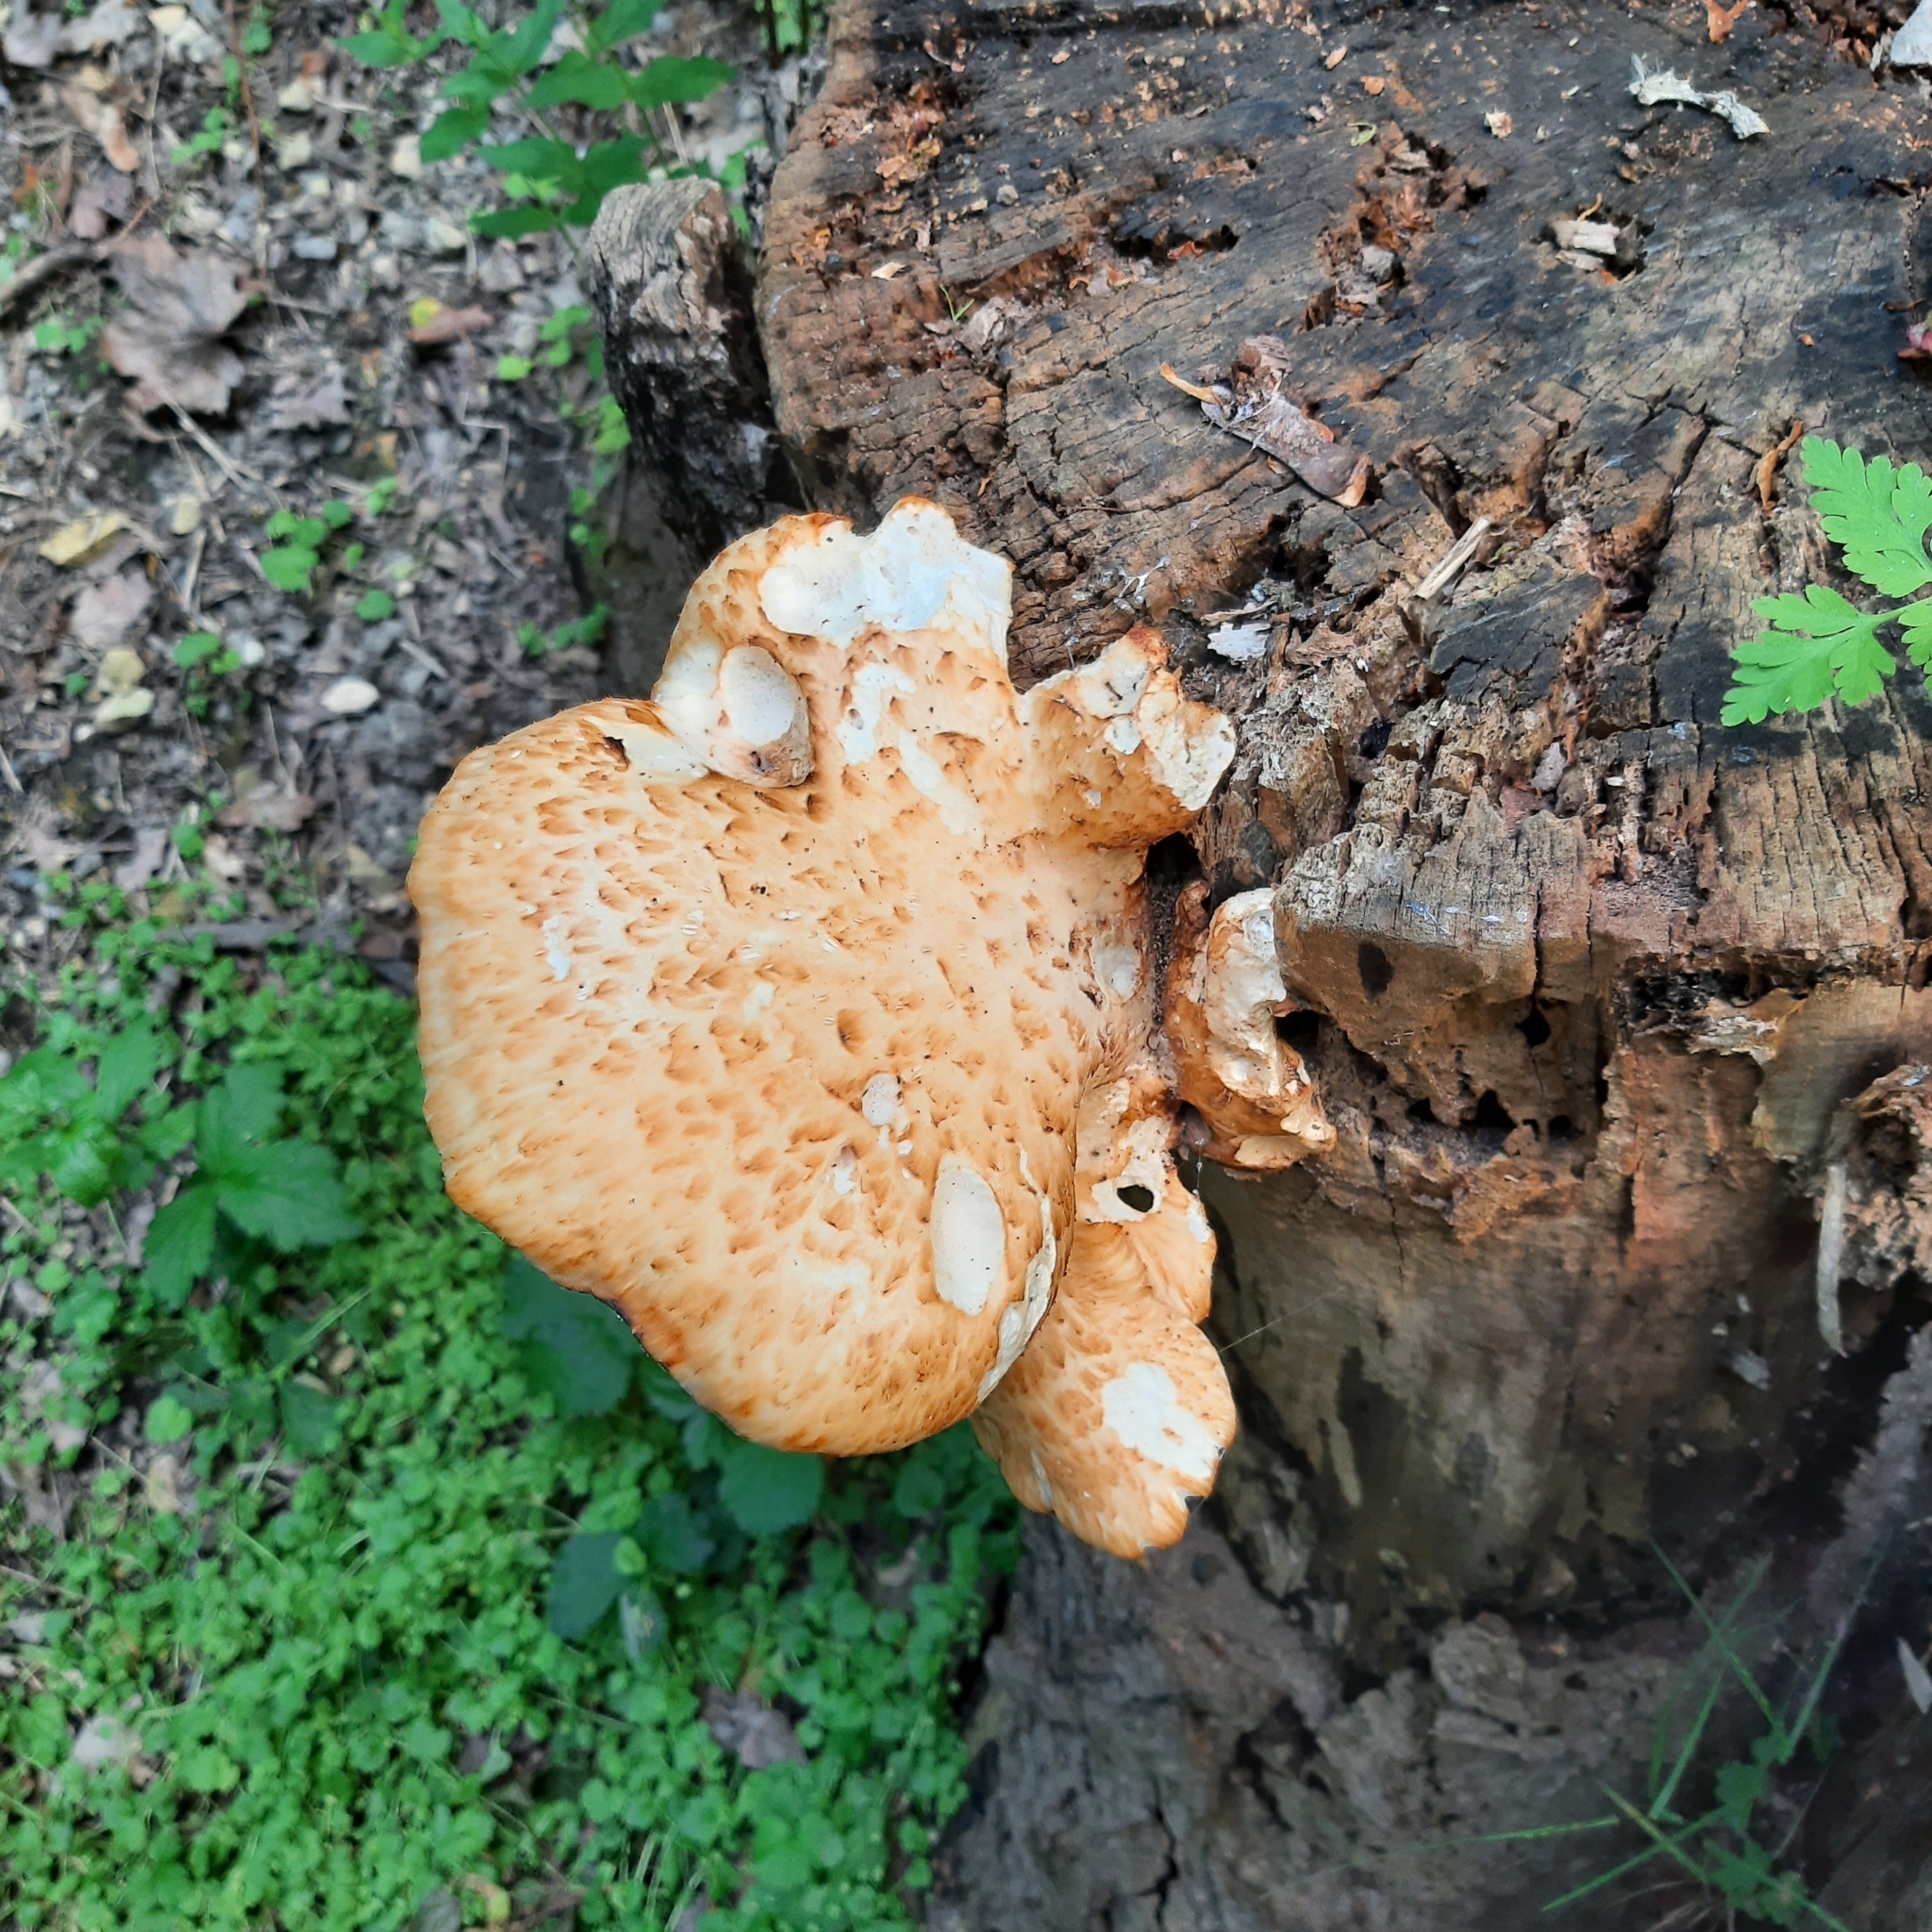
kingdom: Fungi
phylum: Basidiomycota
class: Agaricomycetes
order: Polyporales
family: Polyporaceae
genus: Cerioporus
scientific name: Cerioporus
